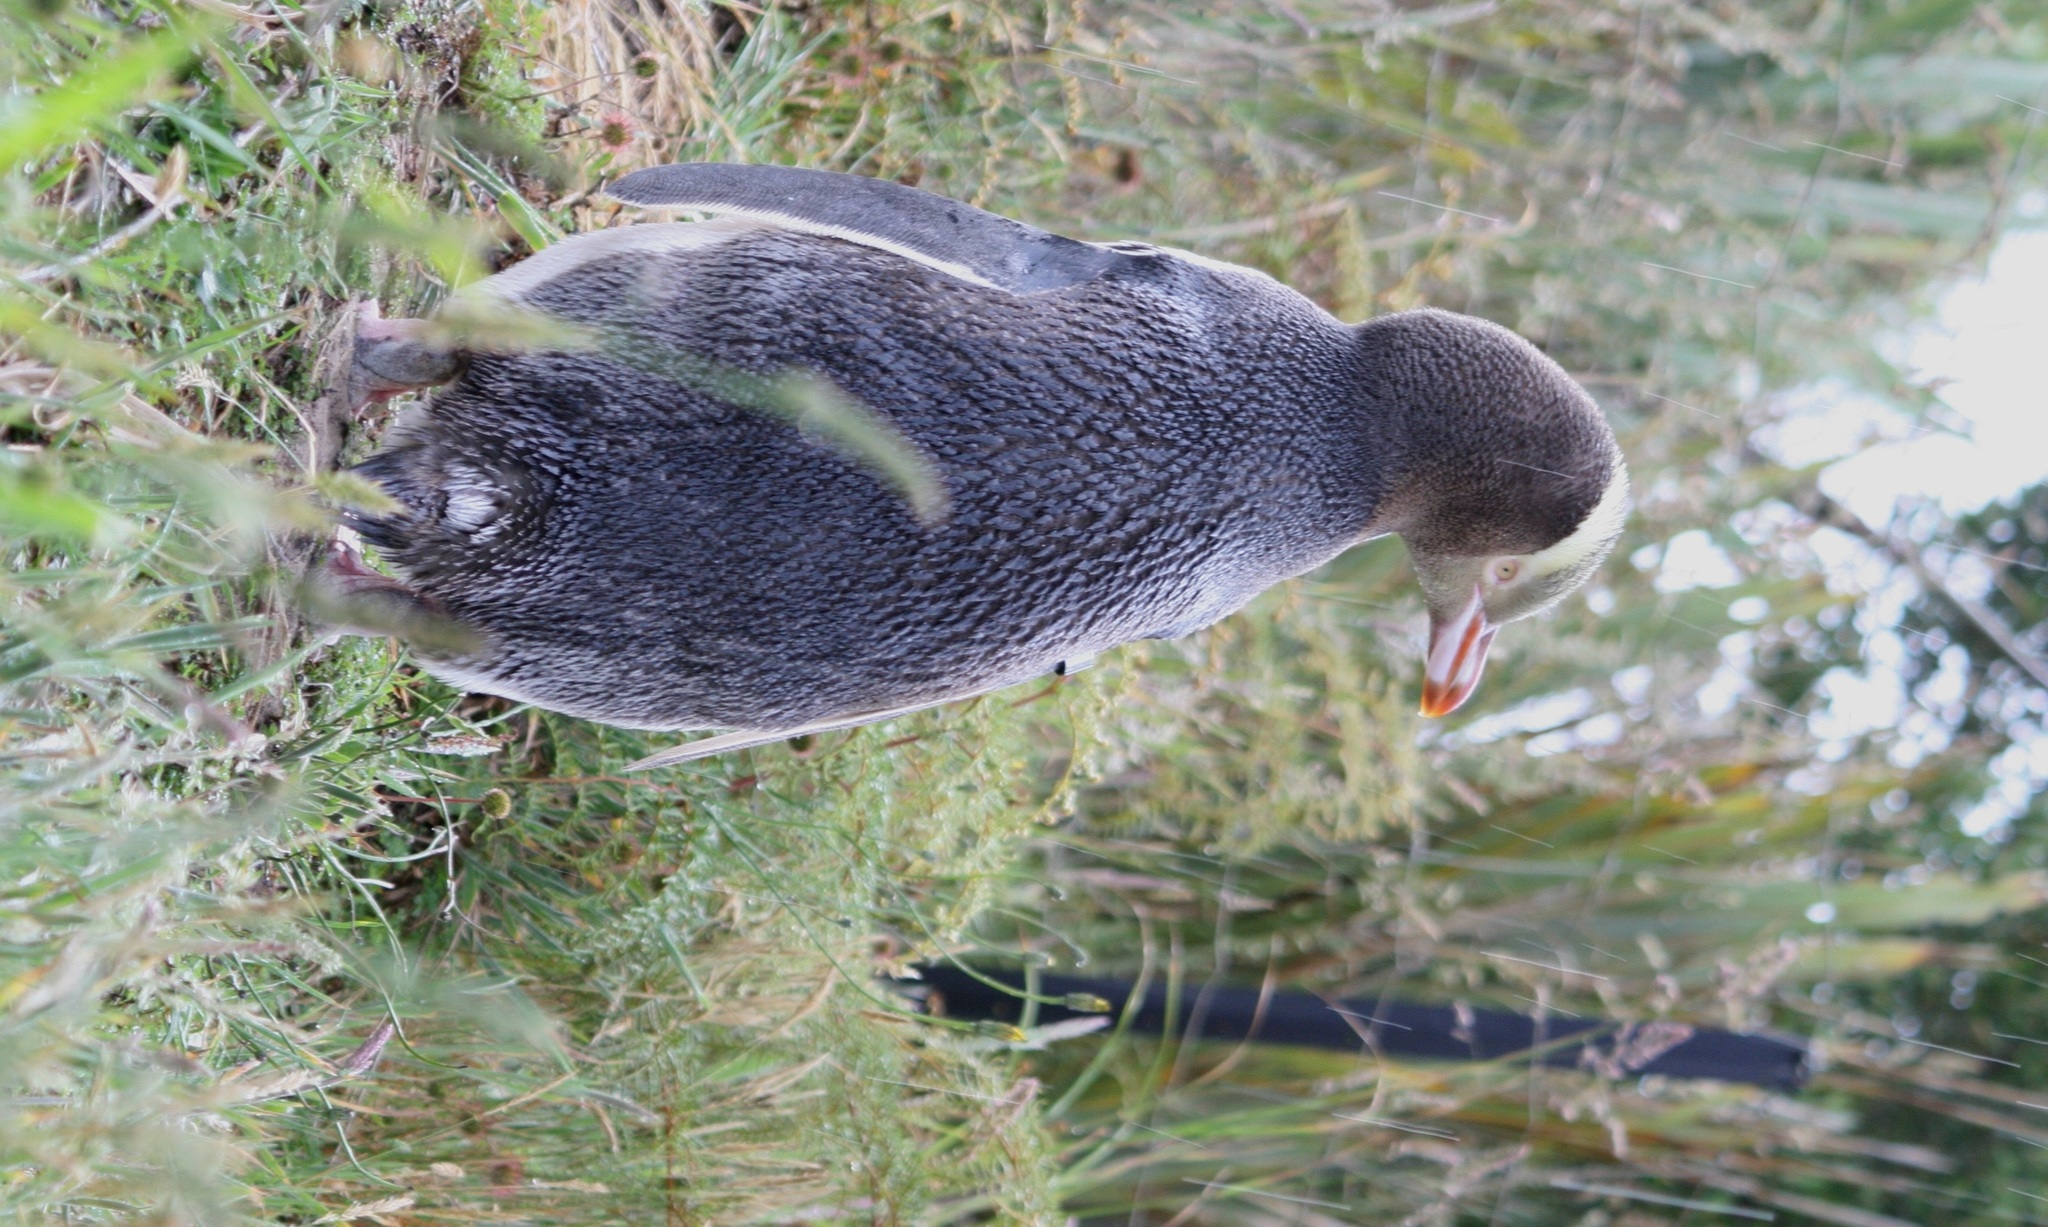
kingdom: Animalia
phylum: Chordata
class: Aves
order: Sphenisciformes
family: Spheniscidae
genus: Megadyptes
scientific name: Megadyptes antipodes
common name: Yellow-eyed penguin
